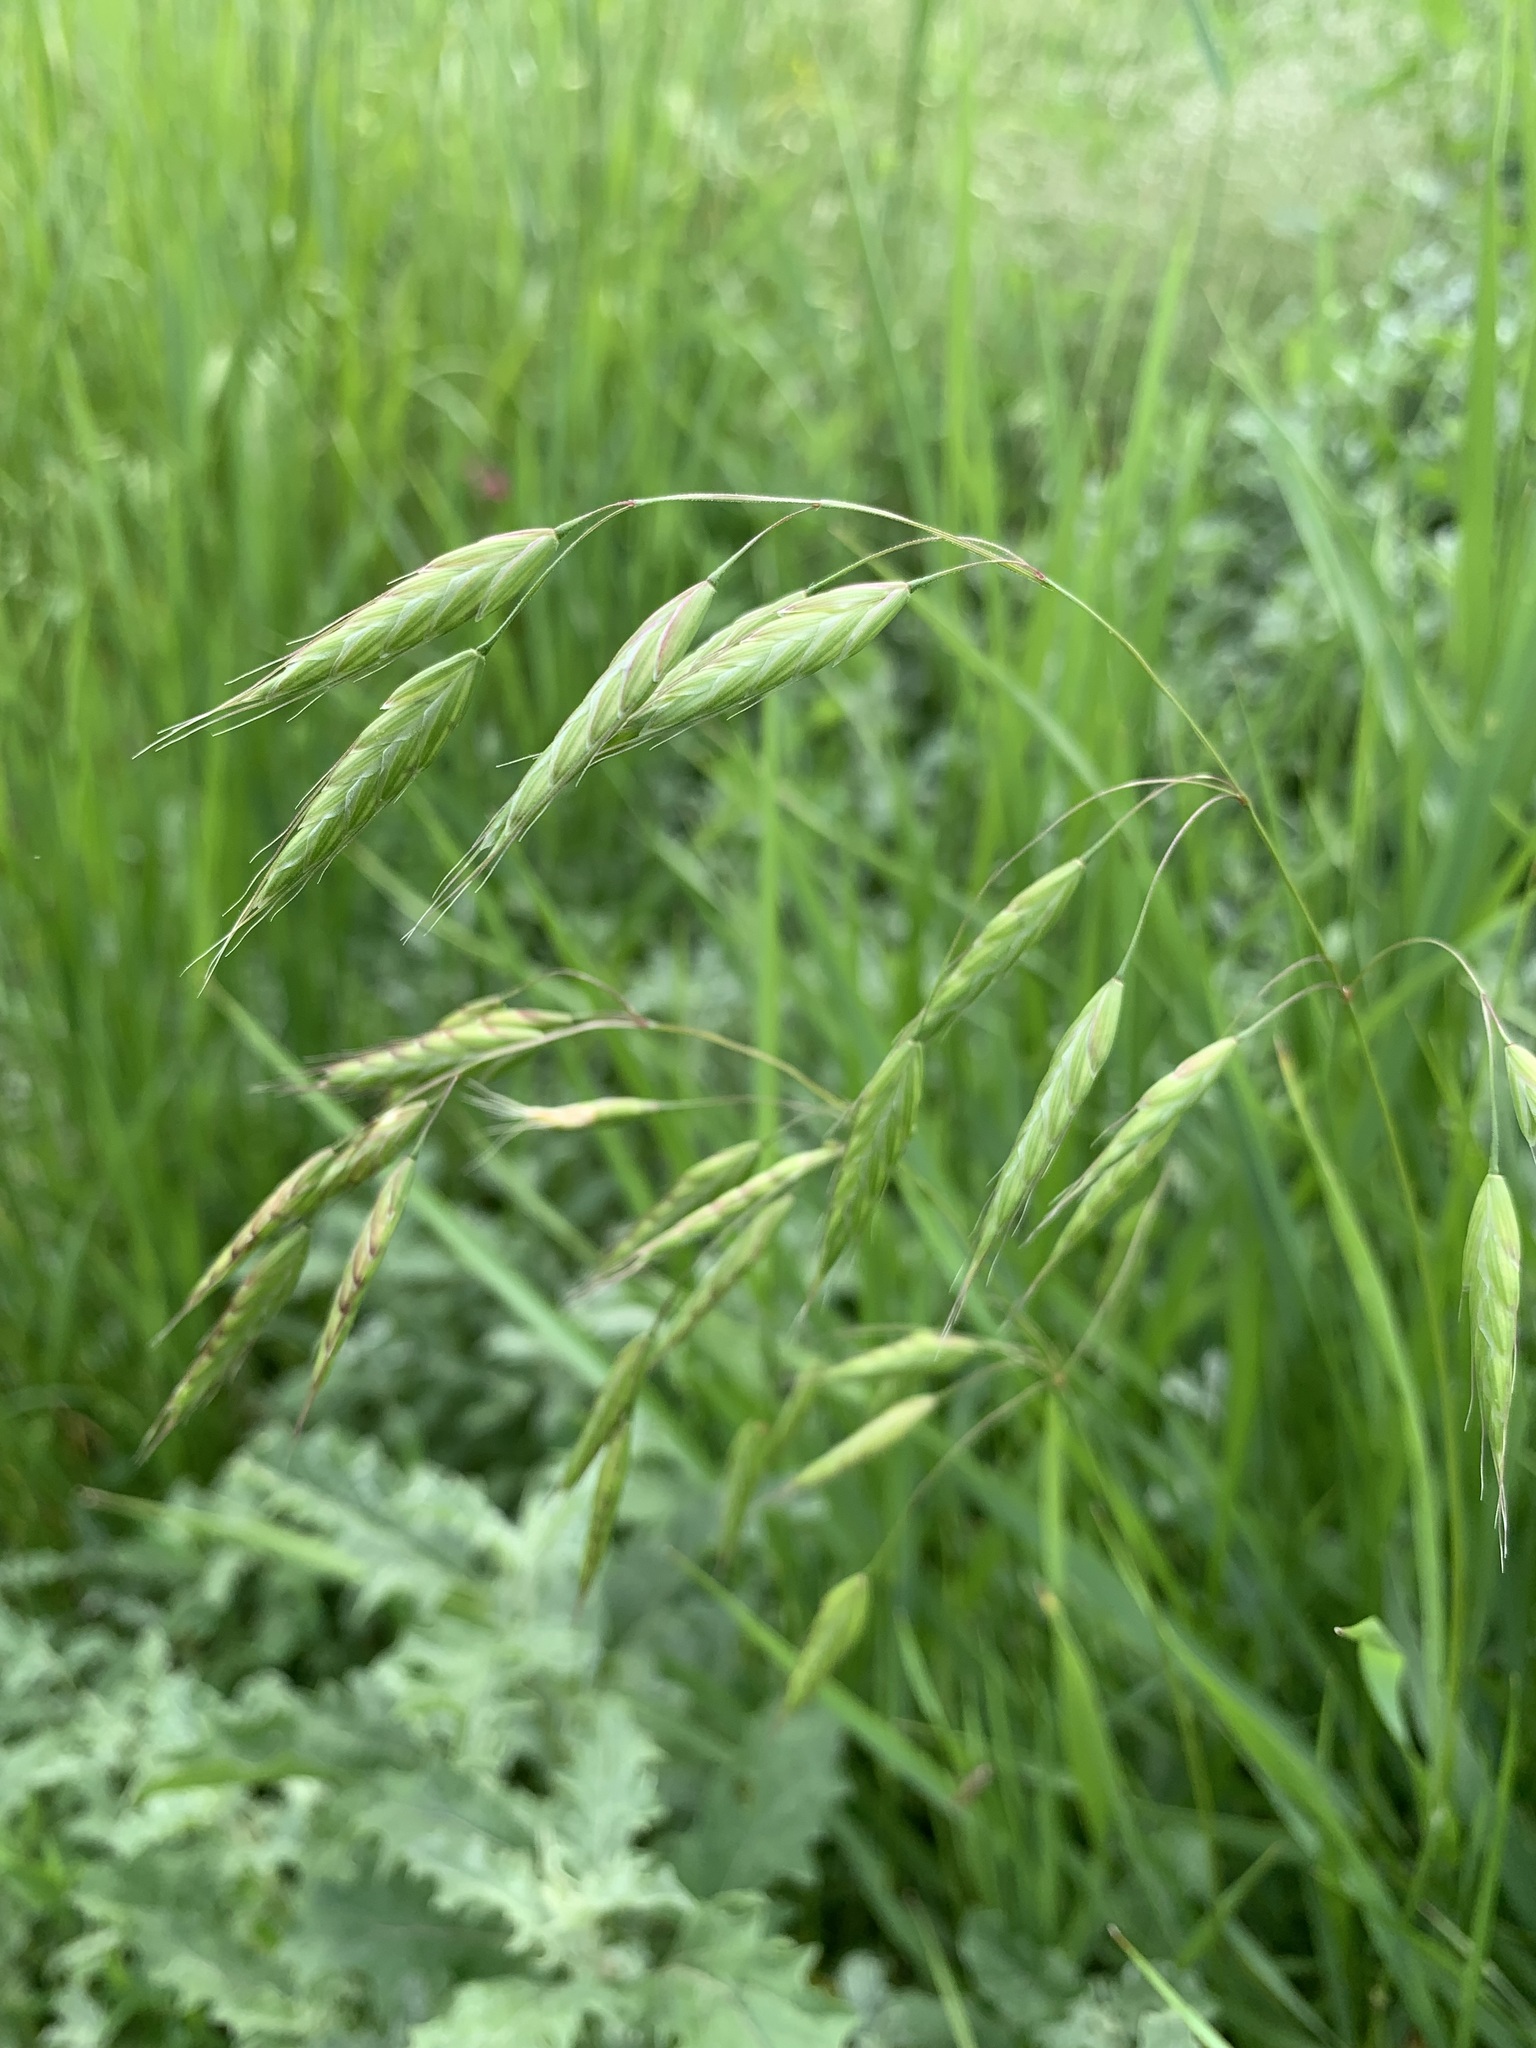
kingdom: Plantae
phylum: Tracheophyta
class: Liliopsida
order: Poales
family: Poaceae
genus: Bromus
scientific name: Bromus squarrosus
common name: Corn brome
